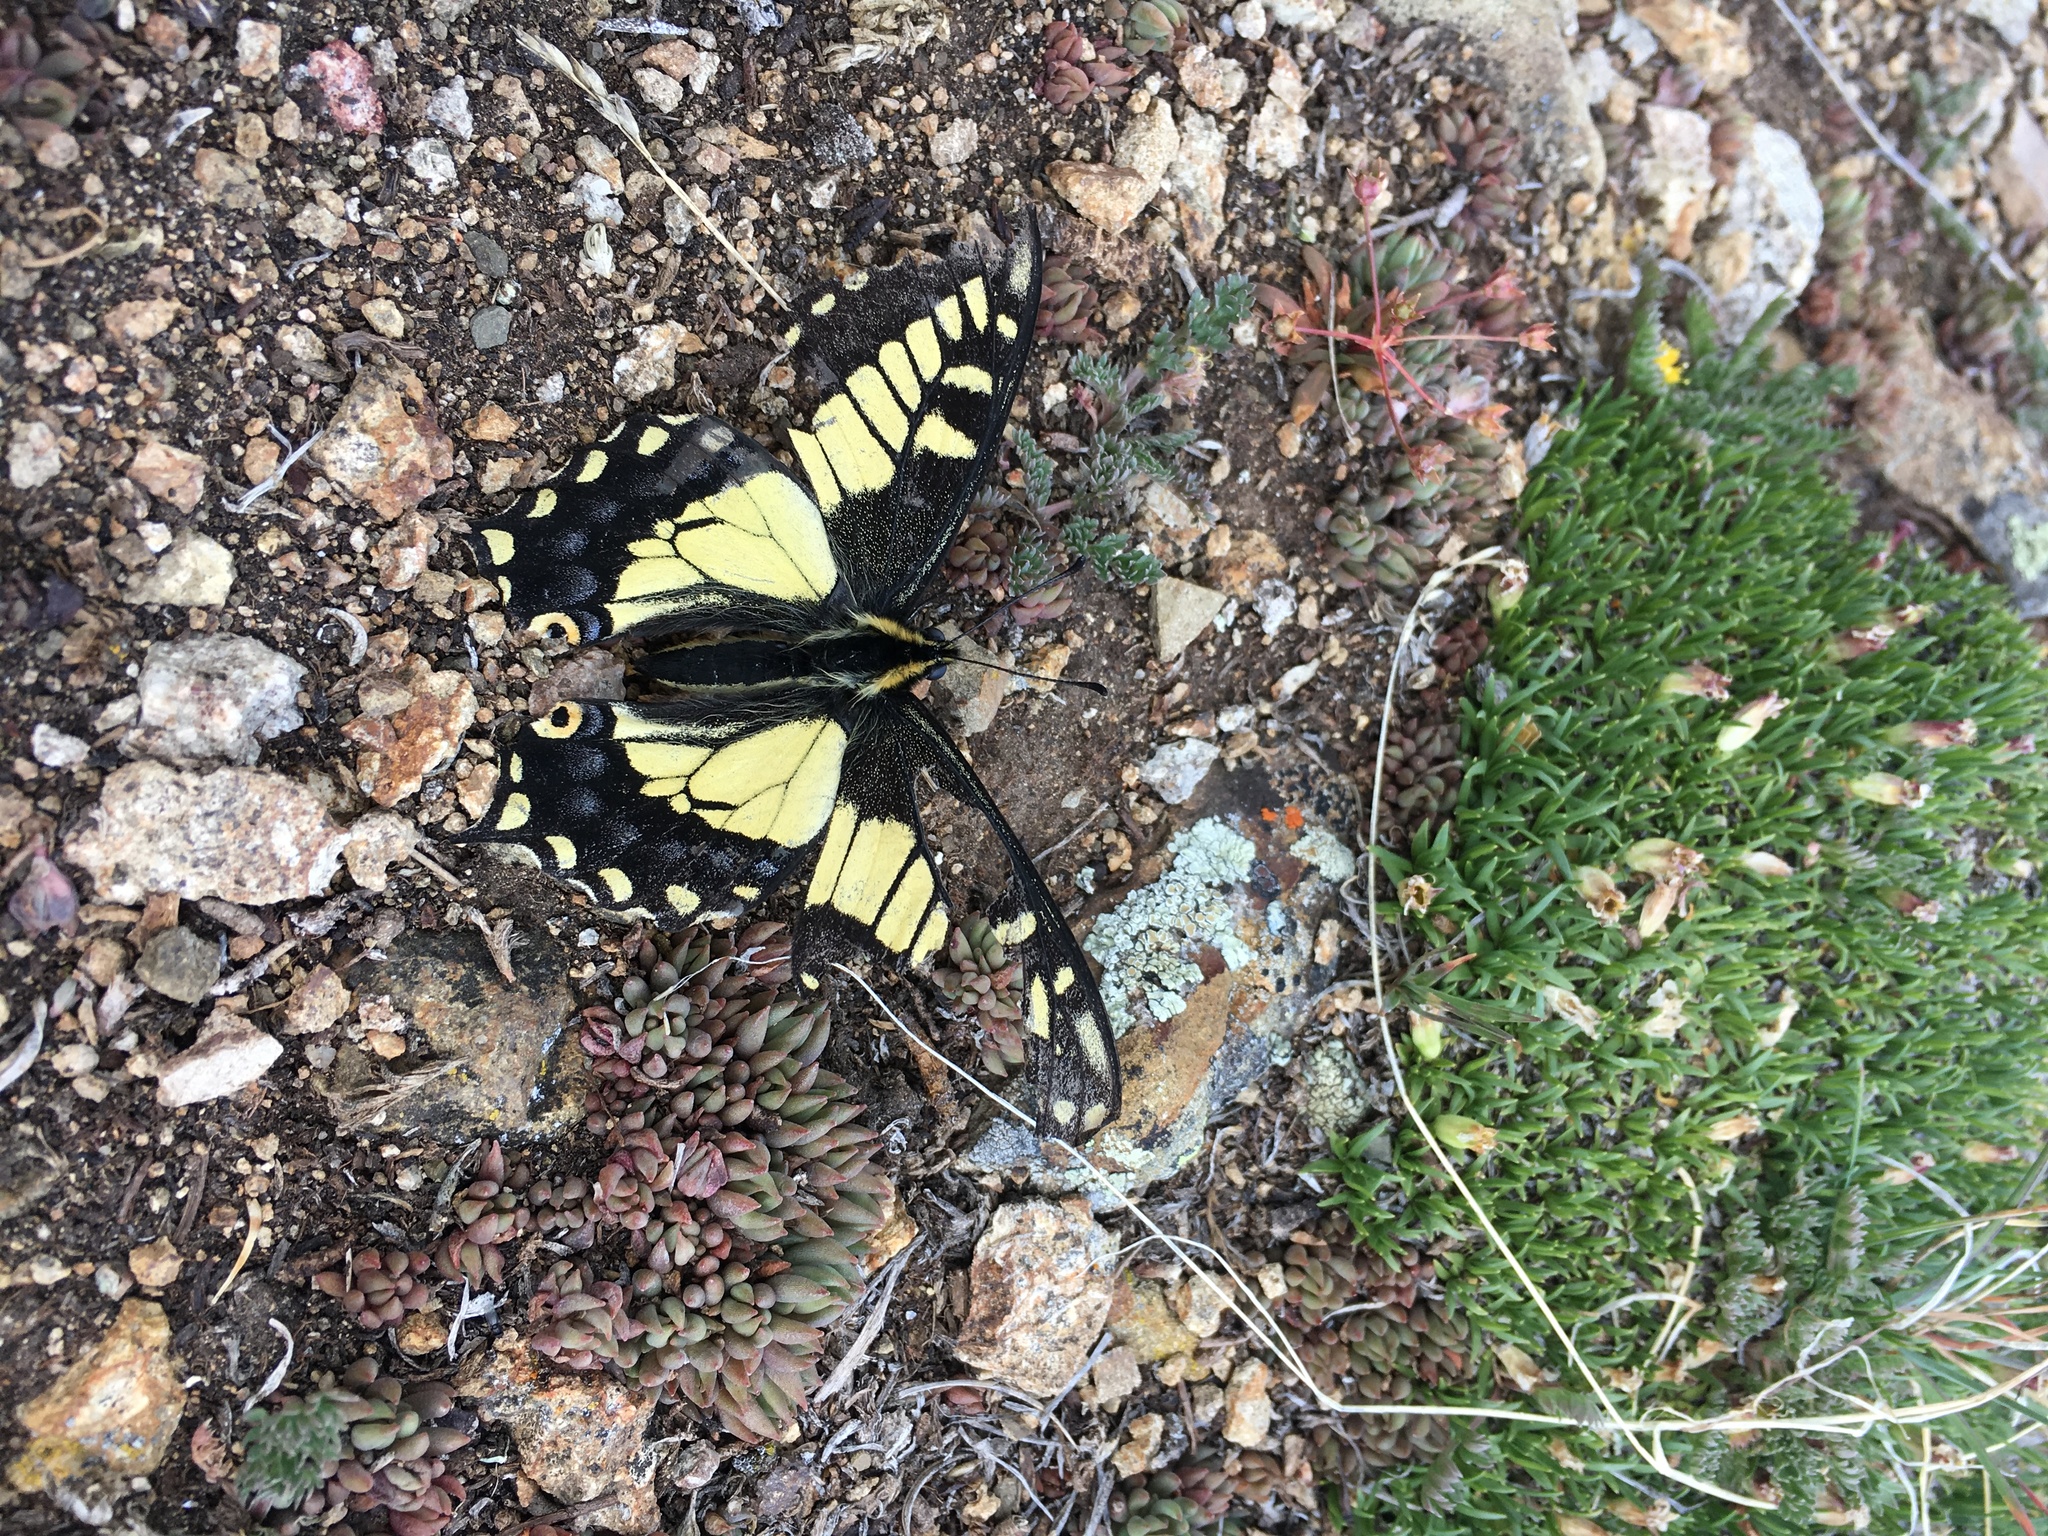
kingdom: Animalia
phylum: Arthropoda
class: Insecta
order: Lepidoptera
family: Papilionidae
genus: Papilio
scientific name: Papilio zelicaon
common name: Anise swallowtail
